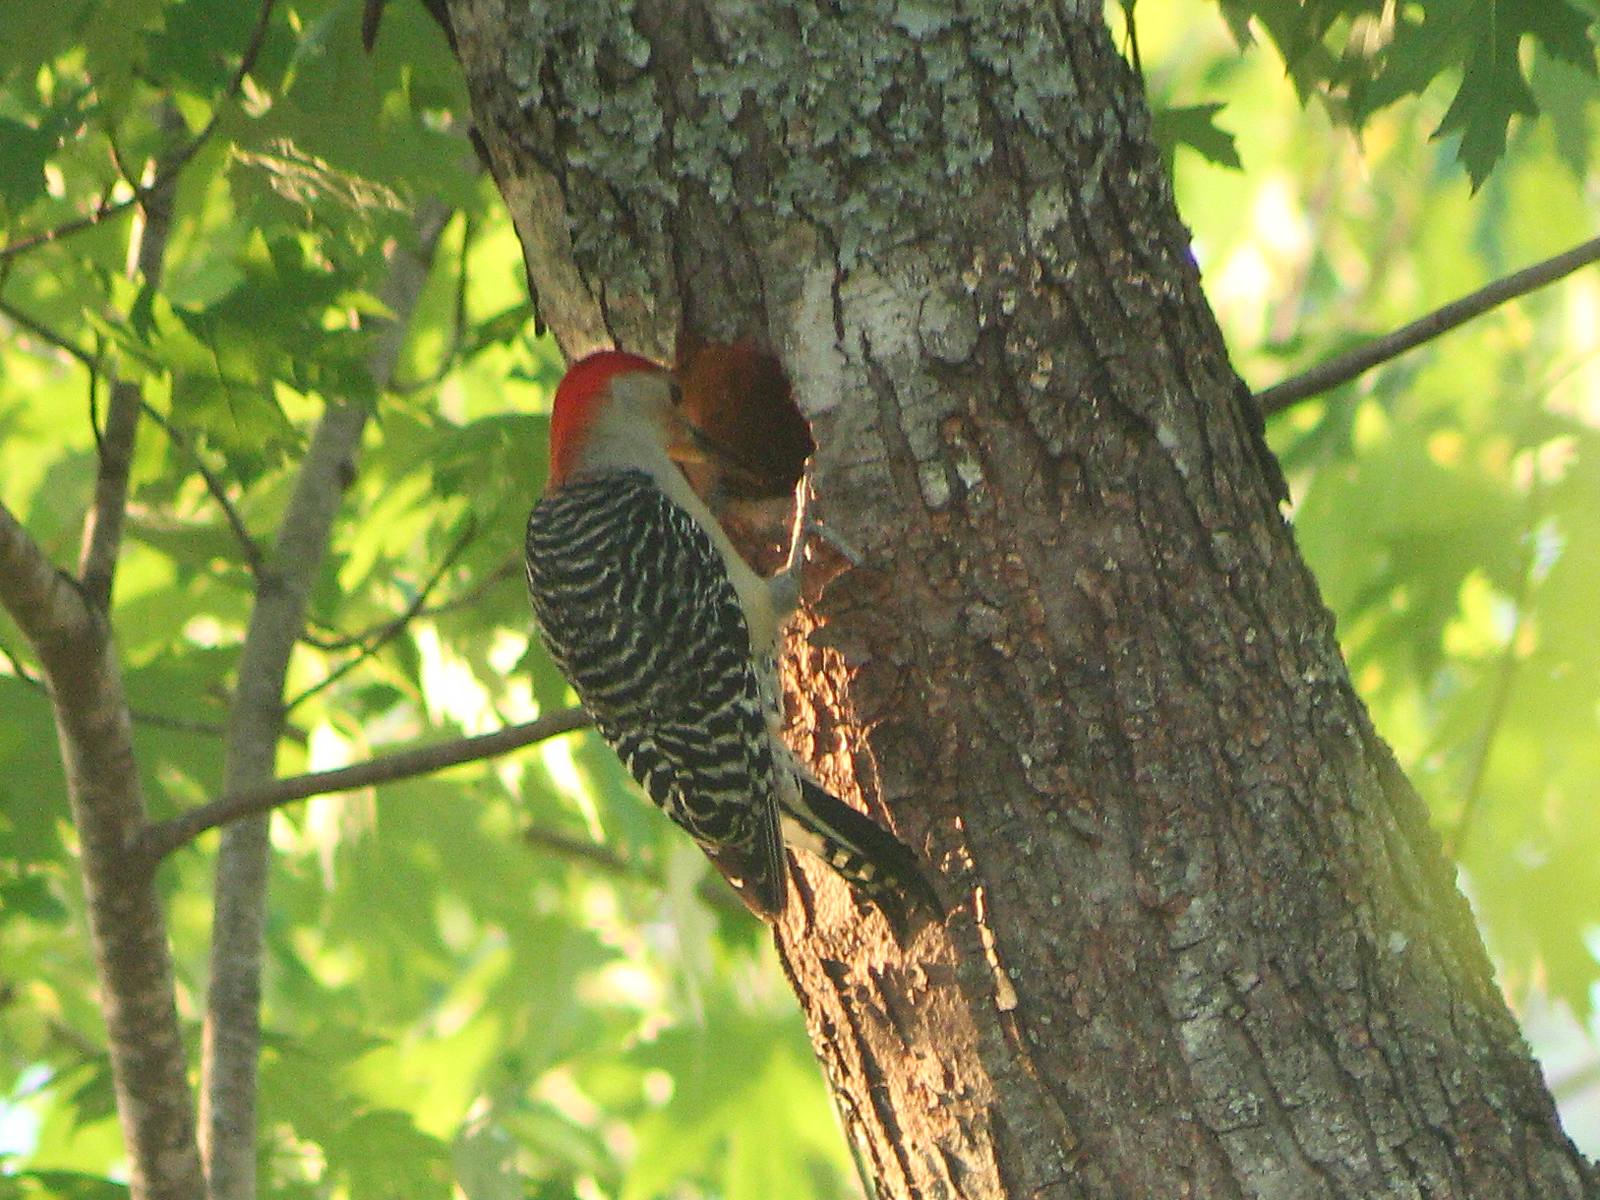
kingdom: Animalia
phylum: Chordata
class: Aves
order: Piciformes
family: Picidae
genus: Melanerpes
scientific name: Melanerpes carolinus
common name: Red-bellied woodpecker
